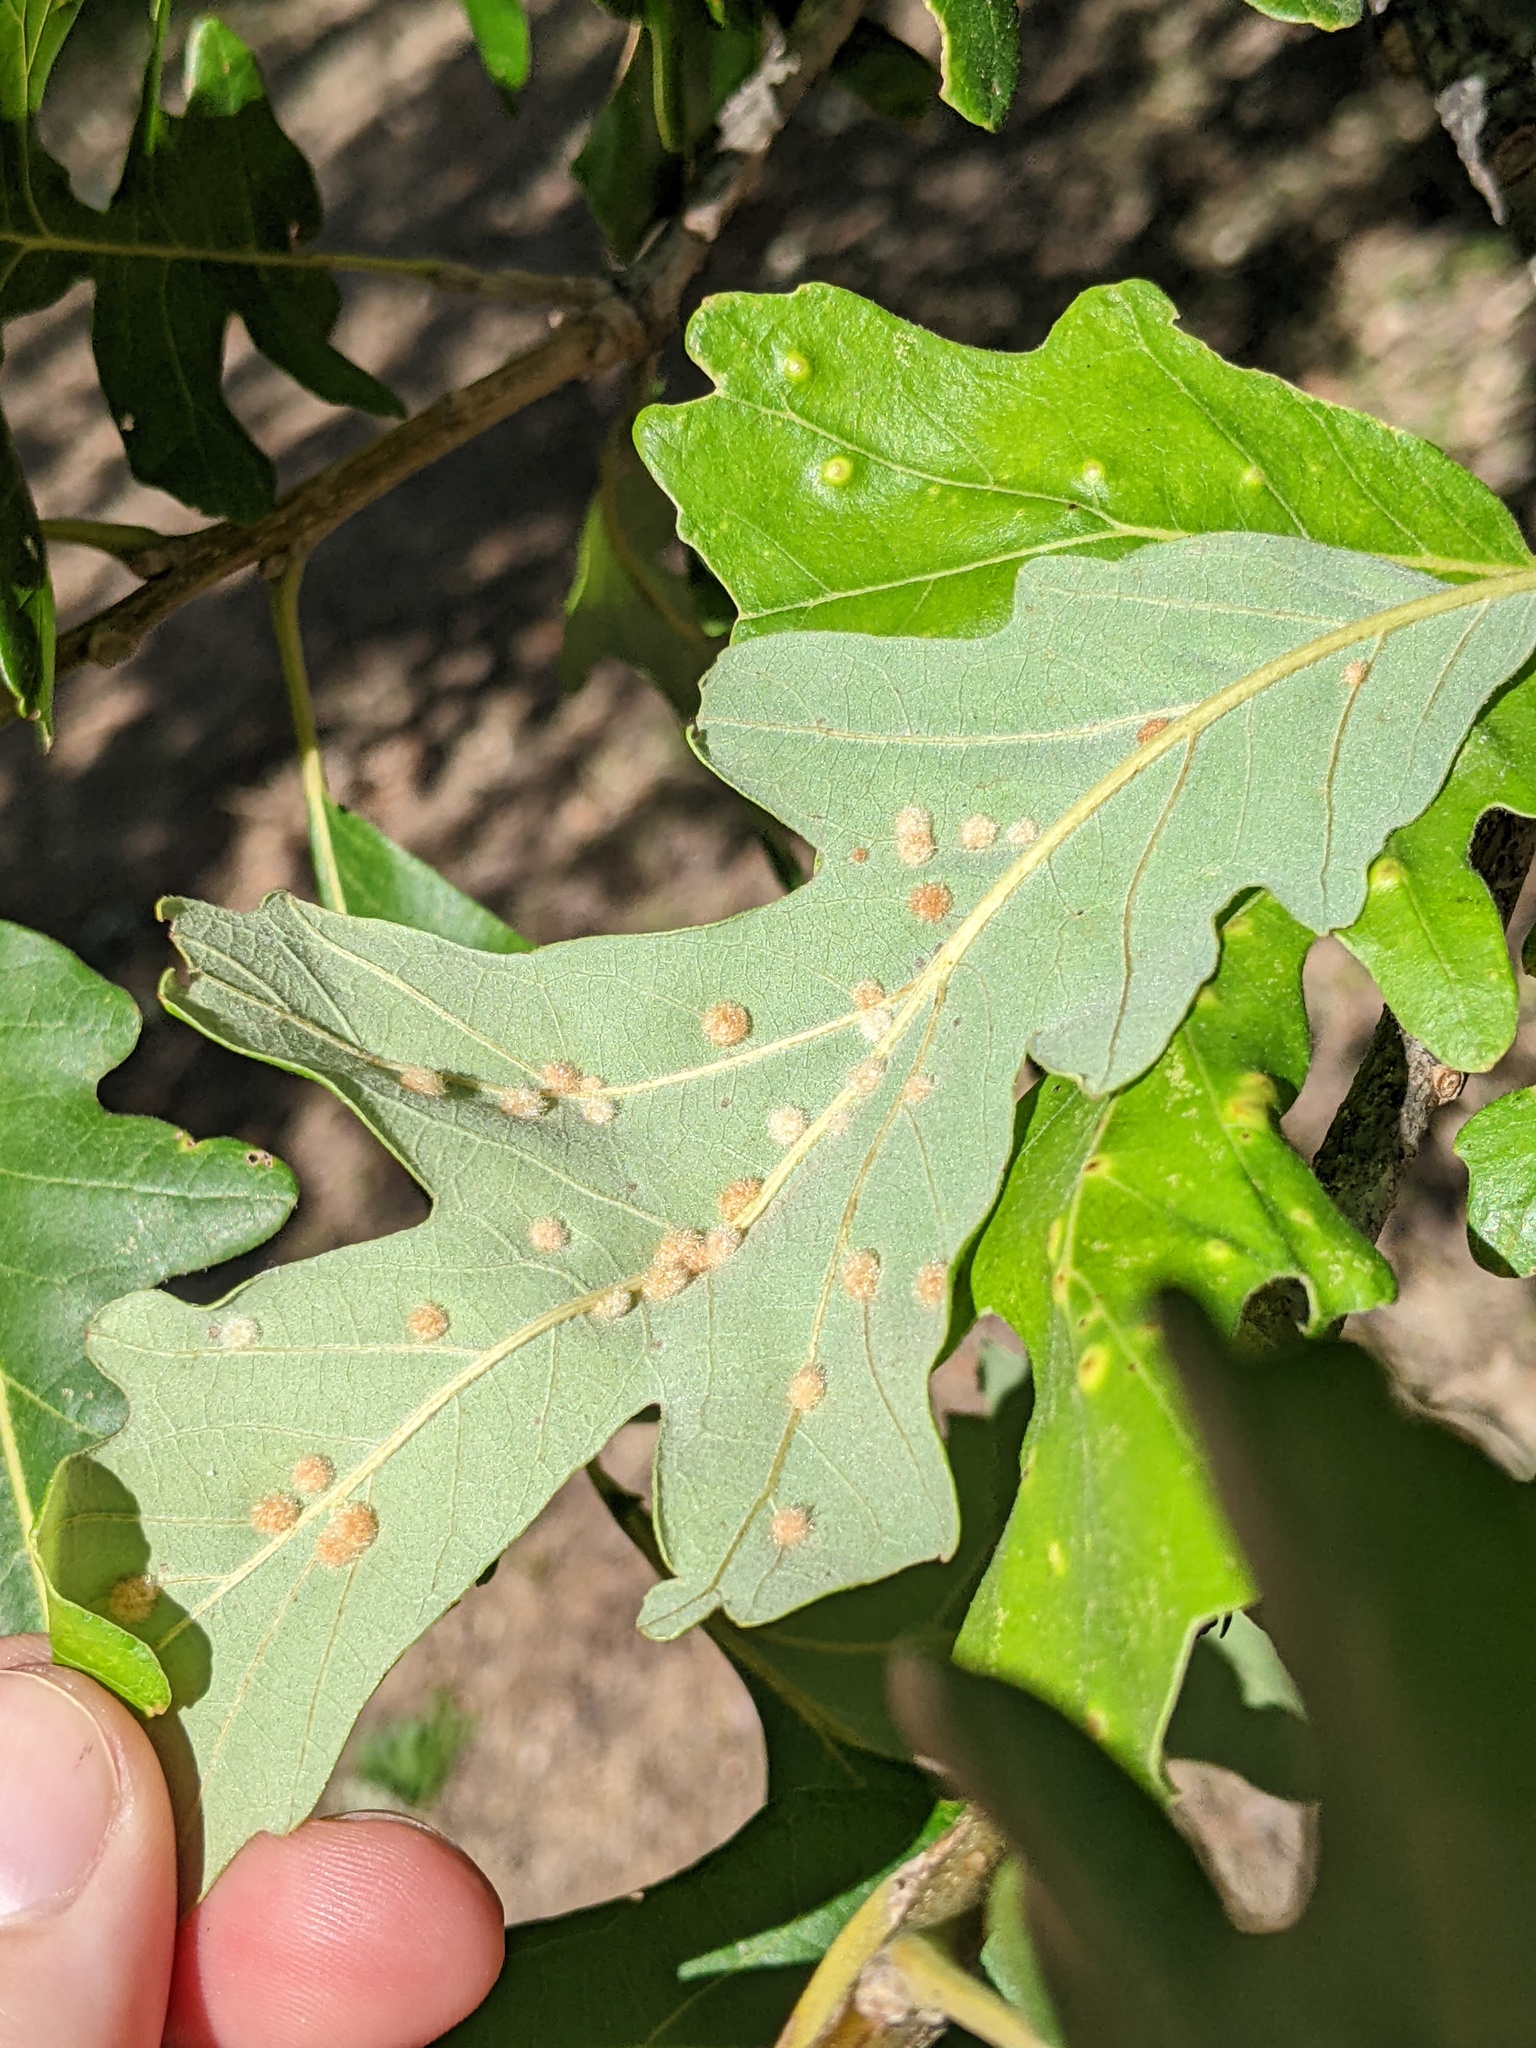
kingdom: Animalia
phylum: Arthropoda
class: Insecta
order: Hymenoptera
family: Cynipidae
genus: Neuroterus
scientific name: Neuroterus quercusverrucarum
